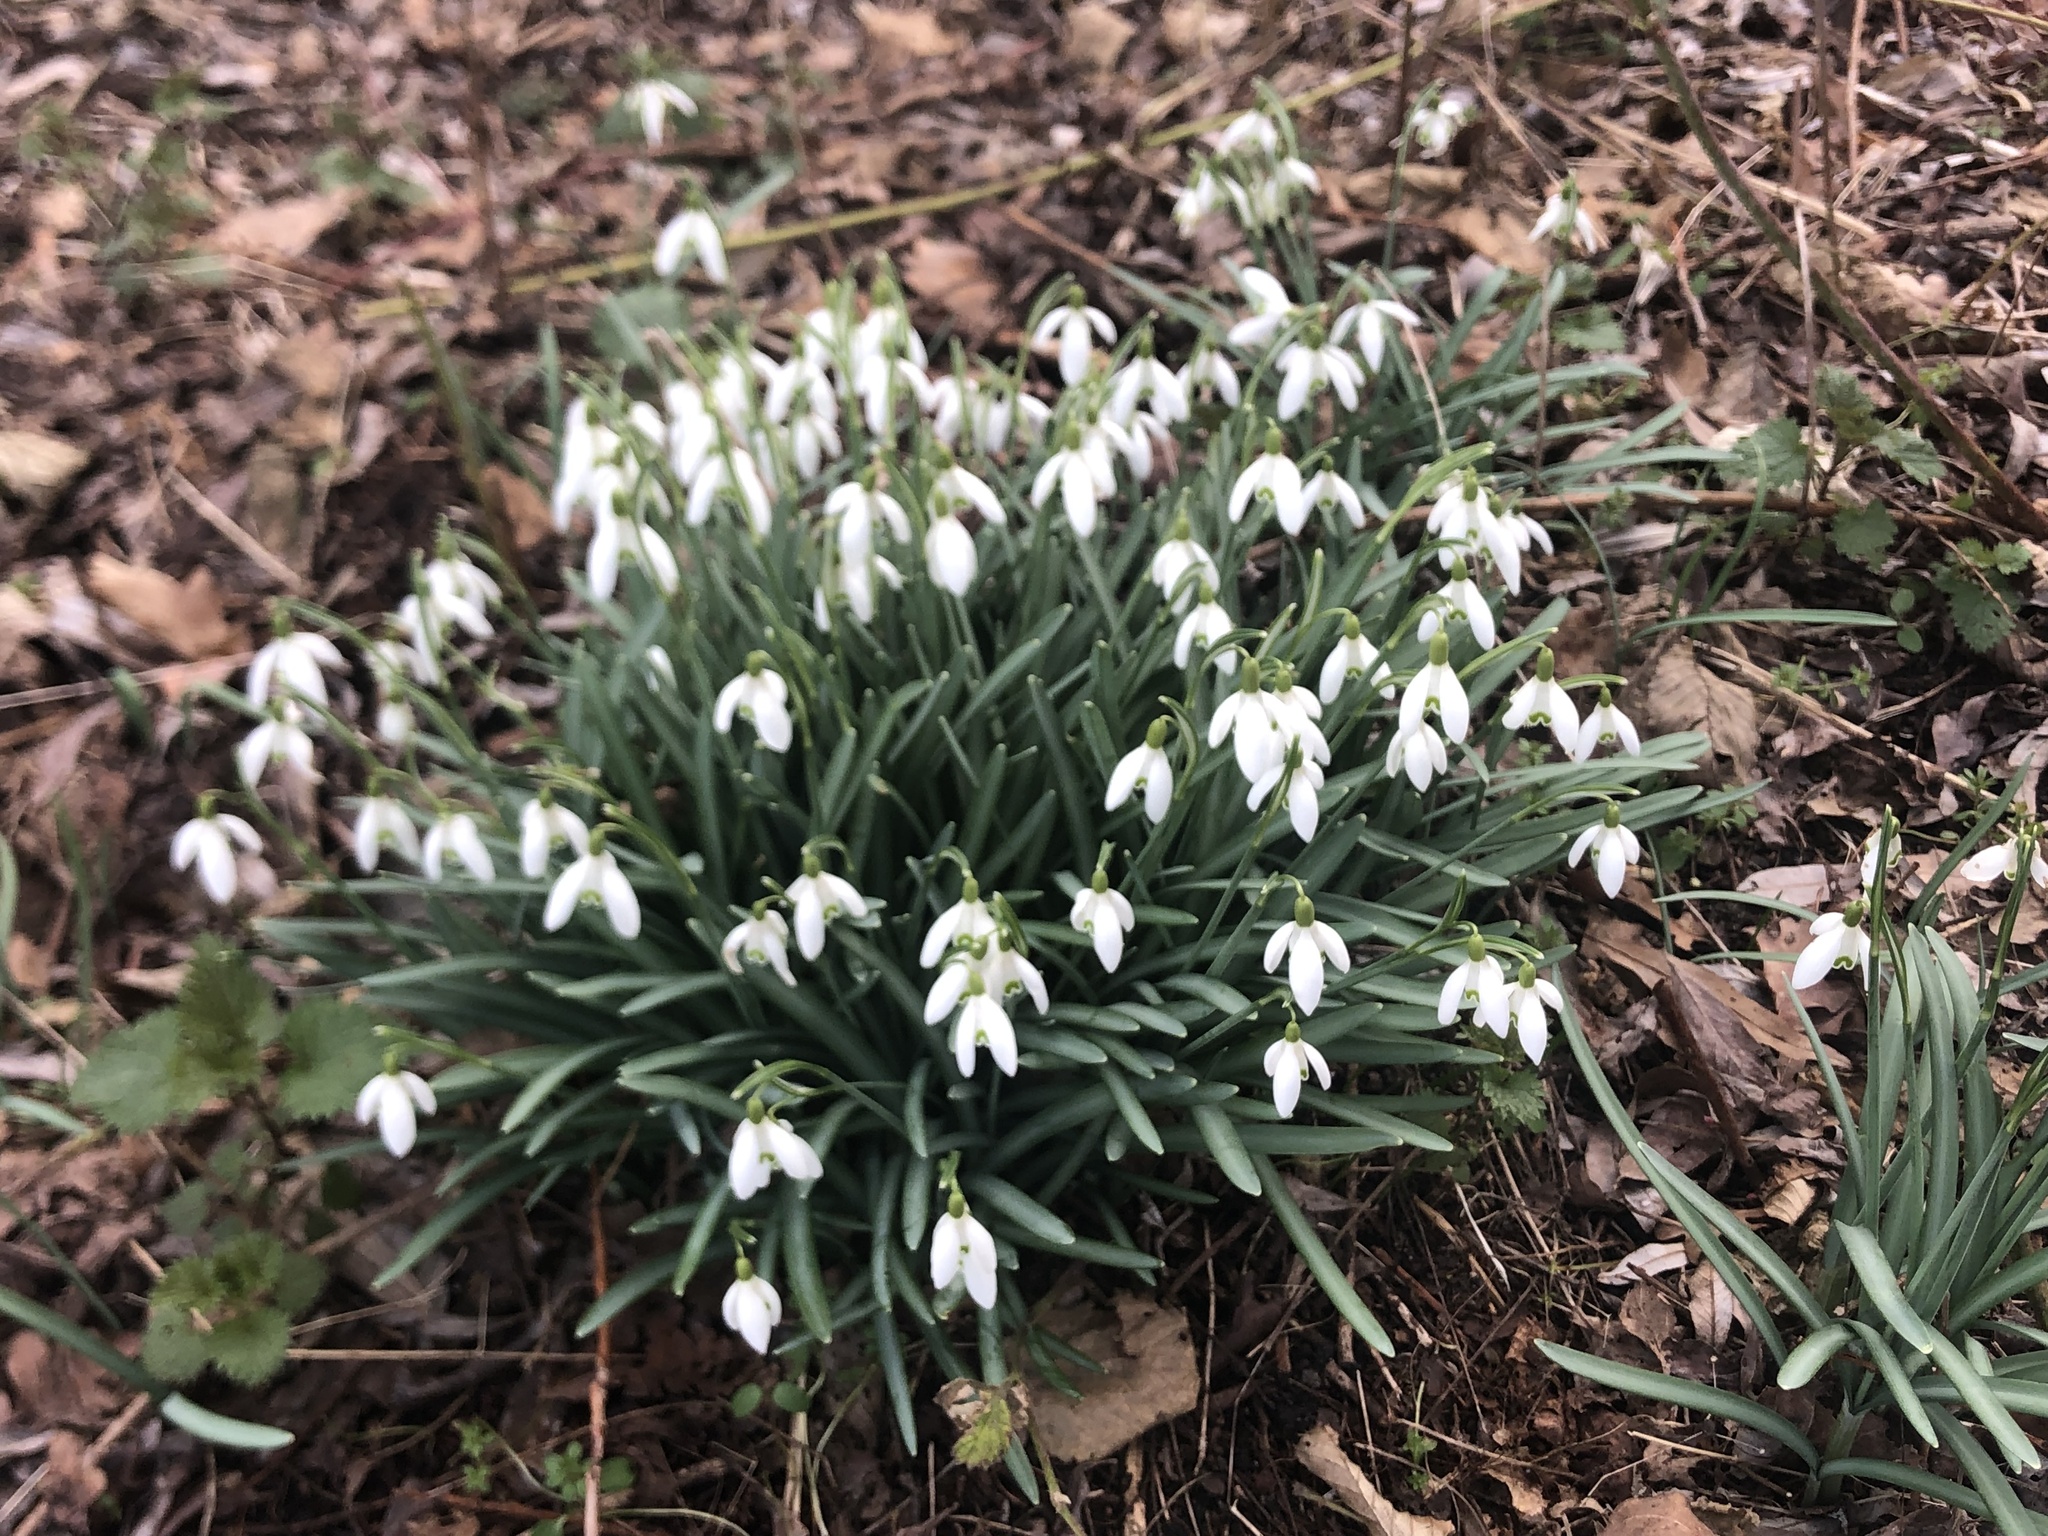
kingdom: Plantae
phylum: Tracheophyta
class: Liliopsida
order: Asparagales
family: Amaryllidaceae
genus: Galanthus
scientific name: Galanthus nivalis
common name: Snowdrop
